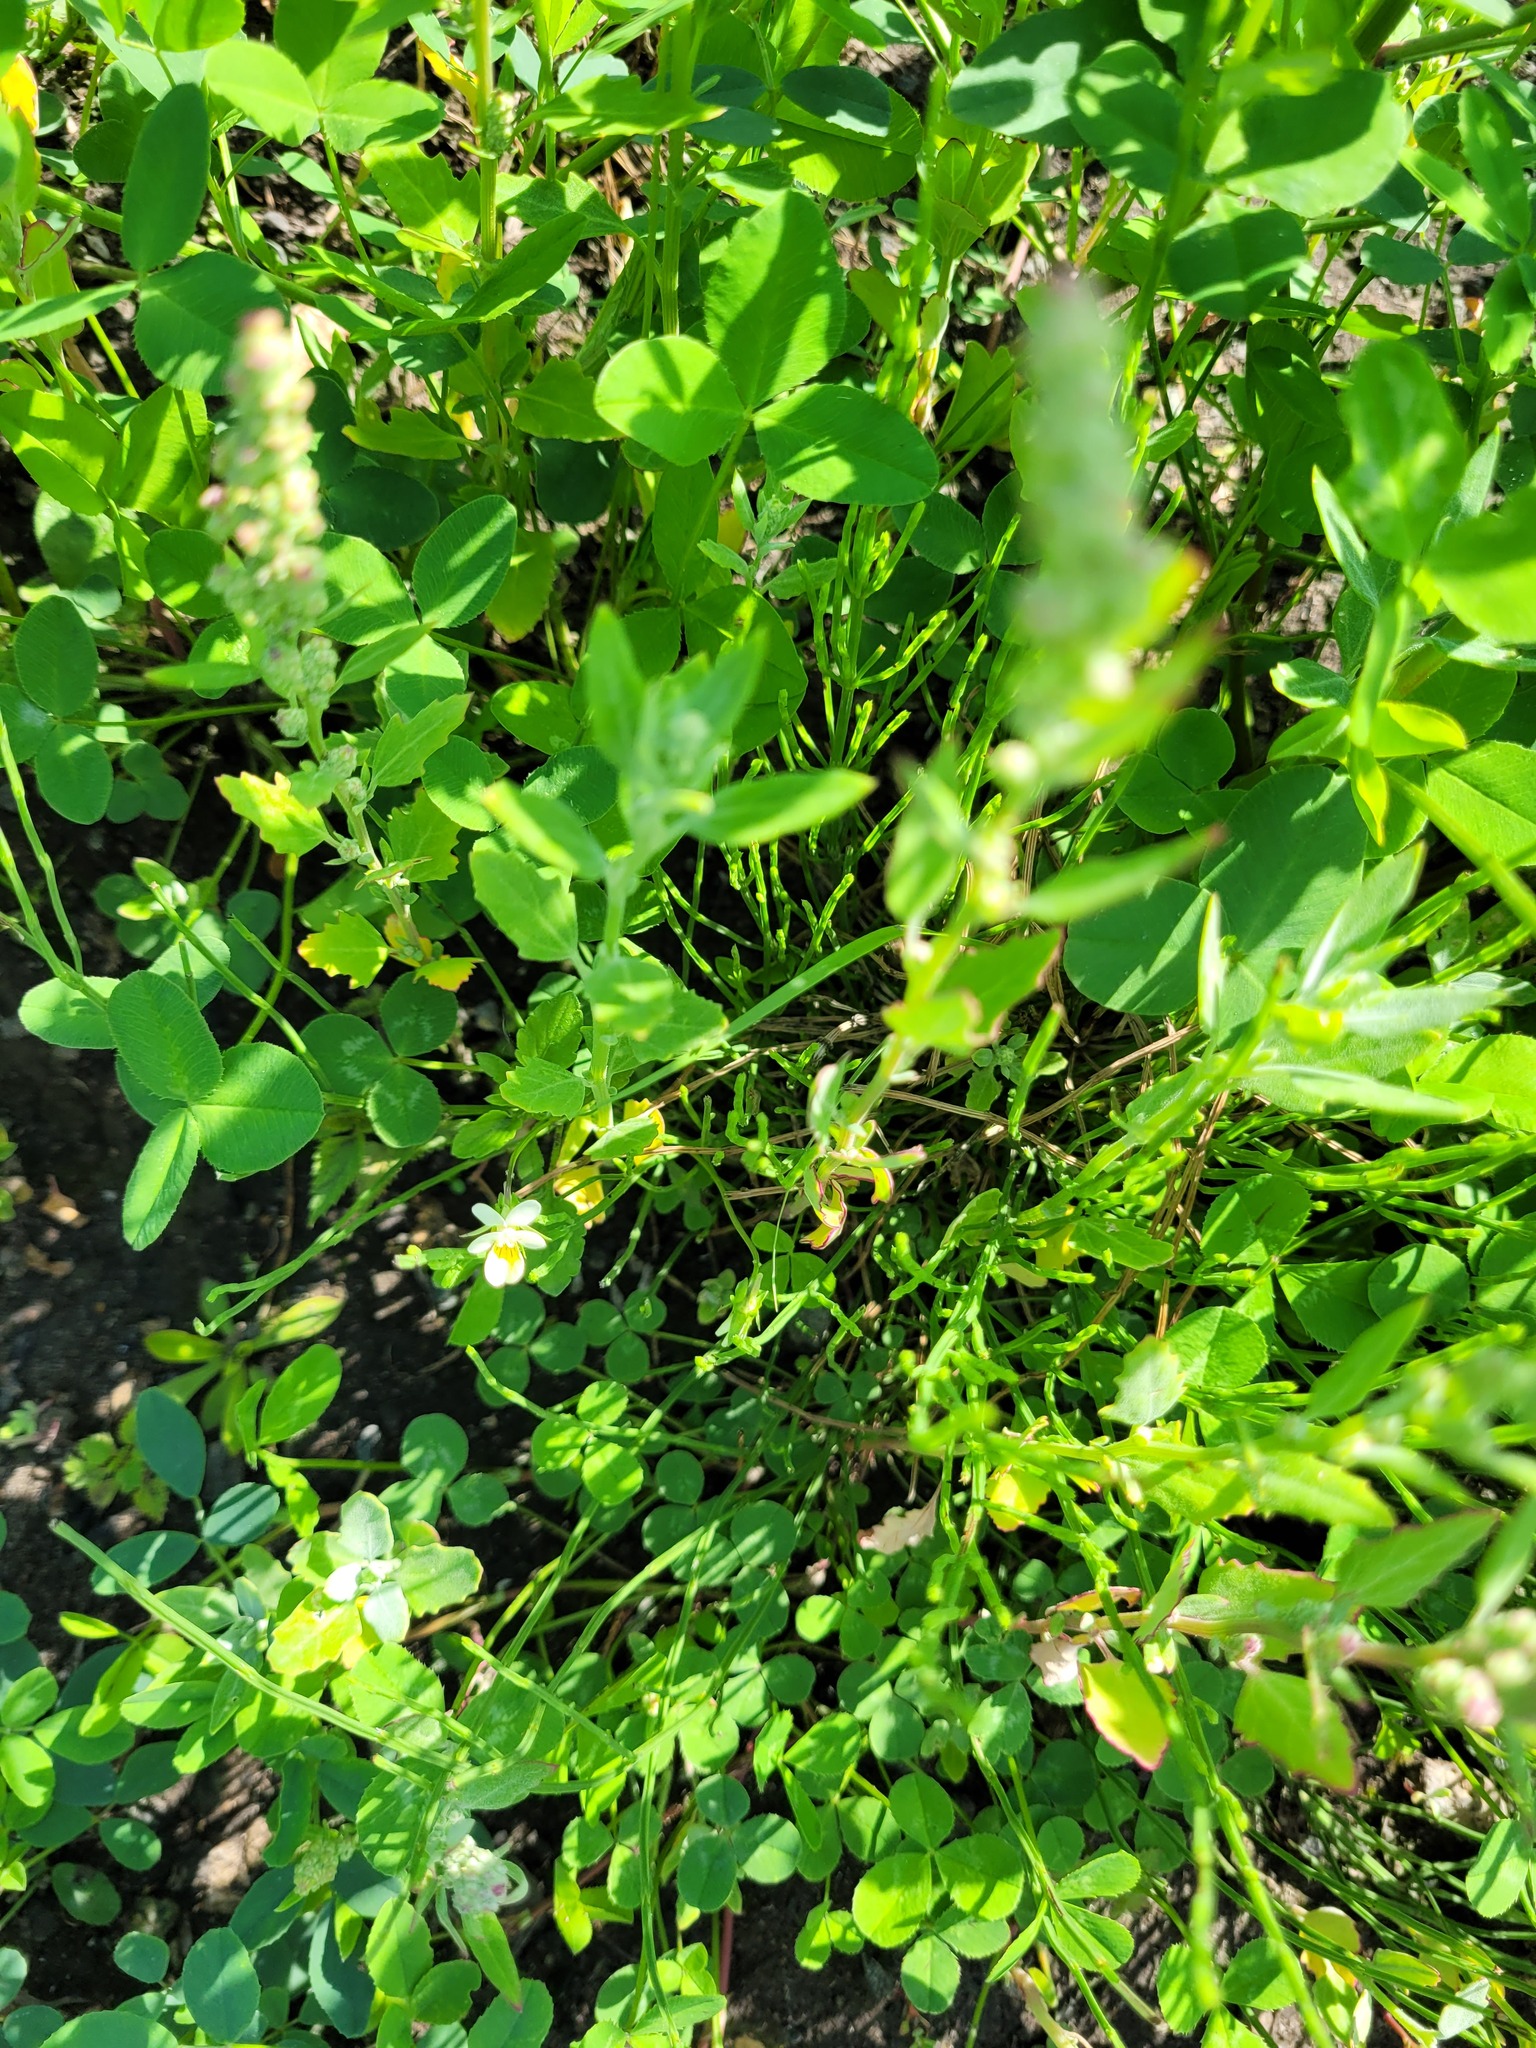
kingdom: Plantae
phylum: Tracheophyta
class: Magnoliopsida
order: Malpighiales
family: Violaceae
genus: Viola
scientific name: Viola arvensis
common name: Field pansy
